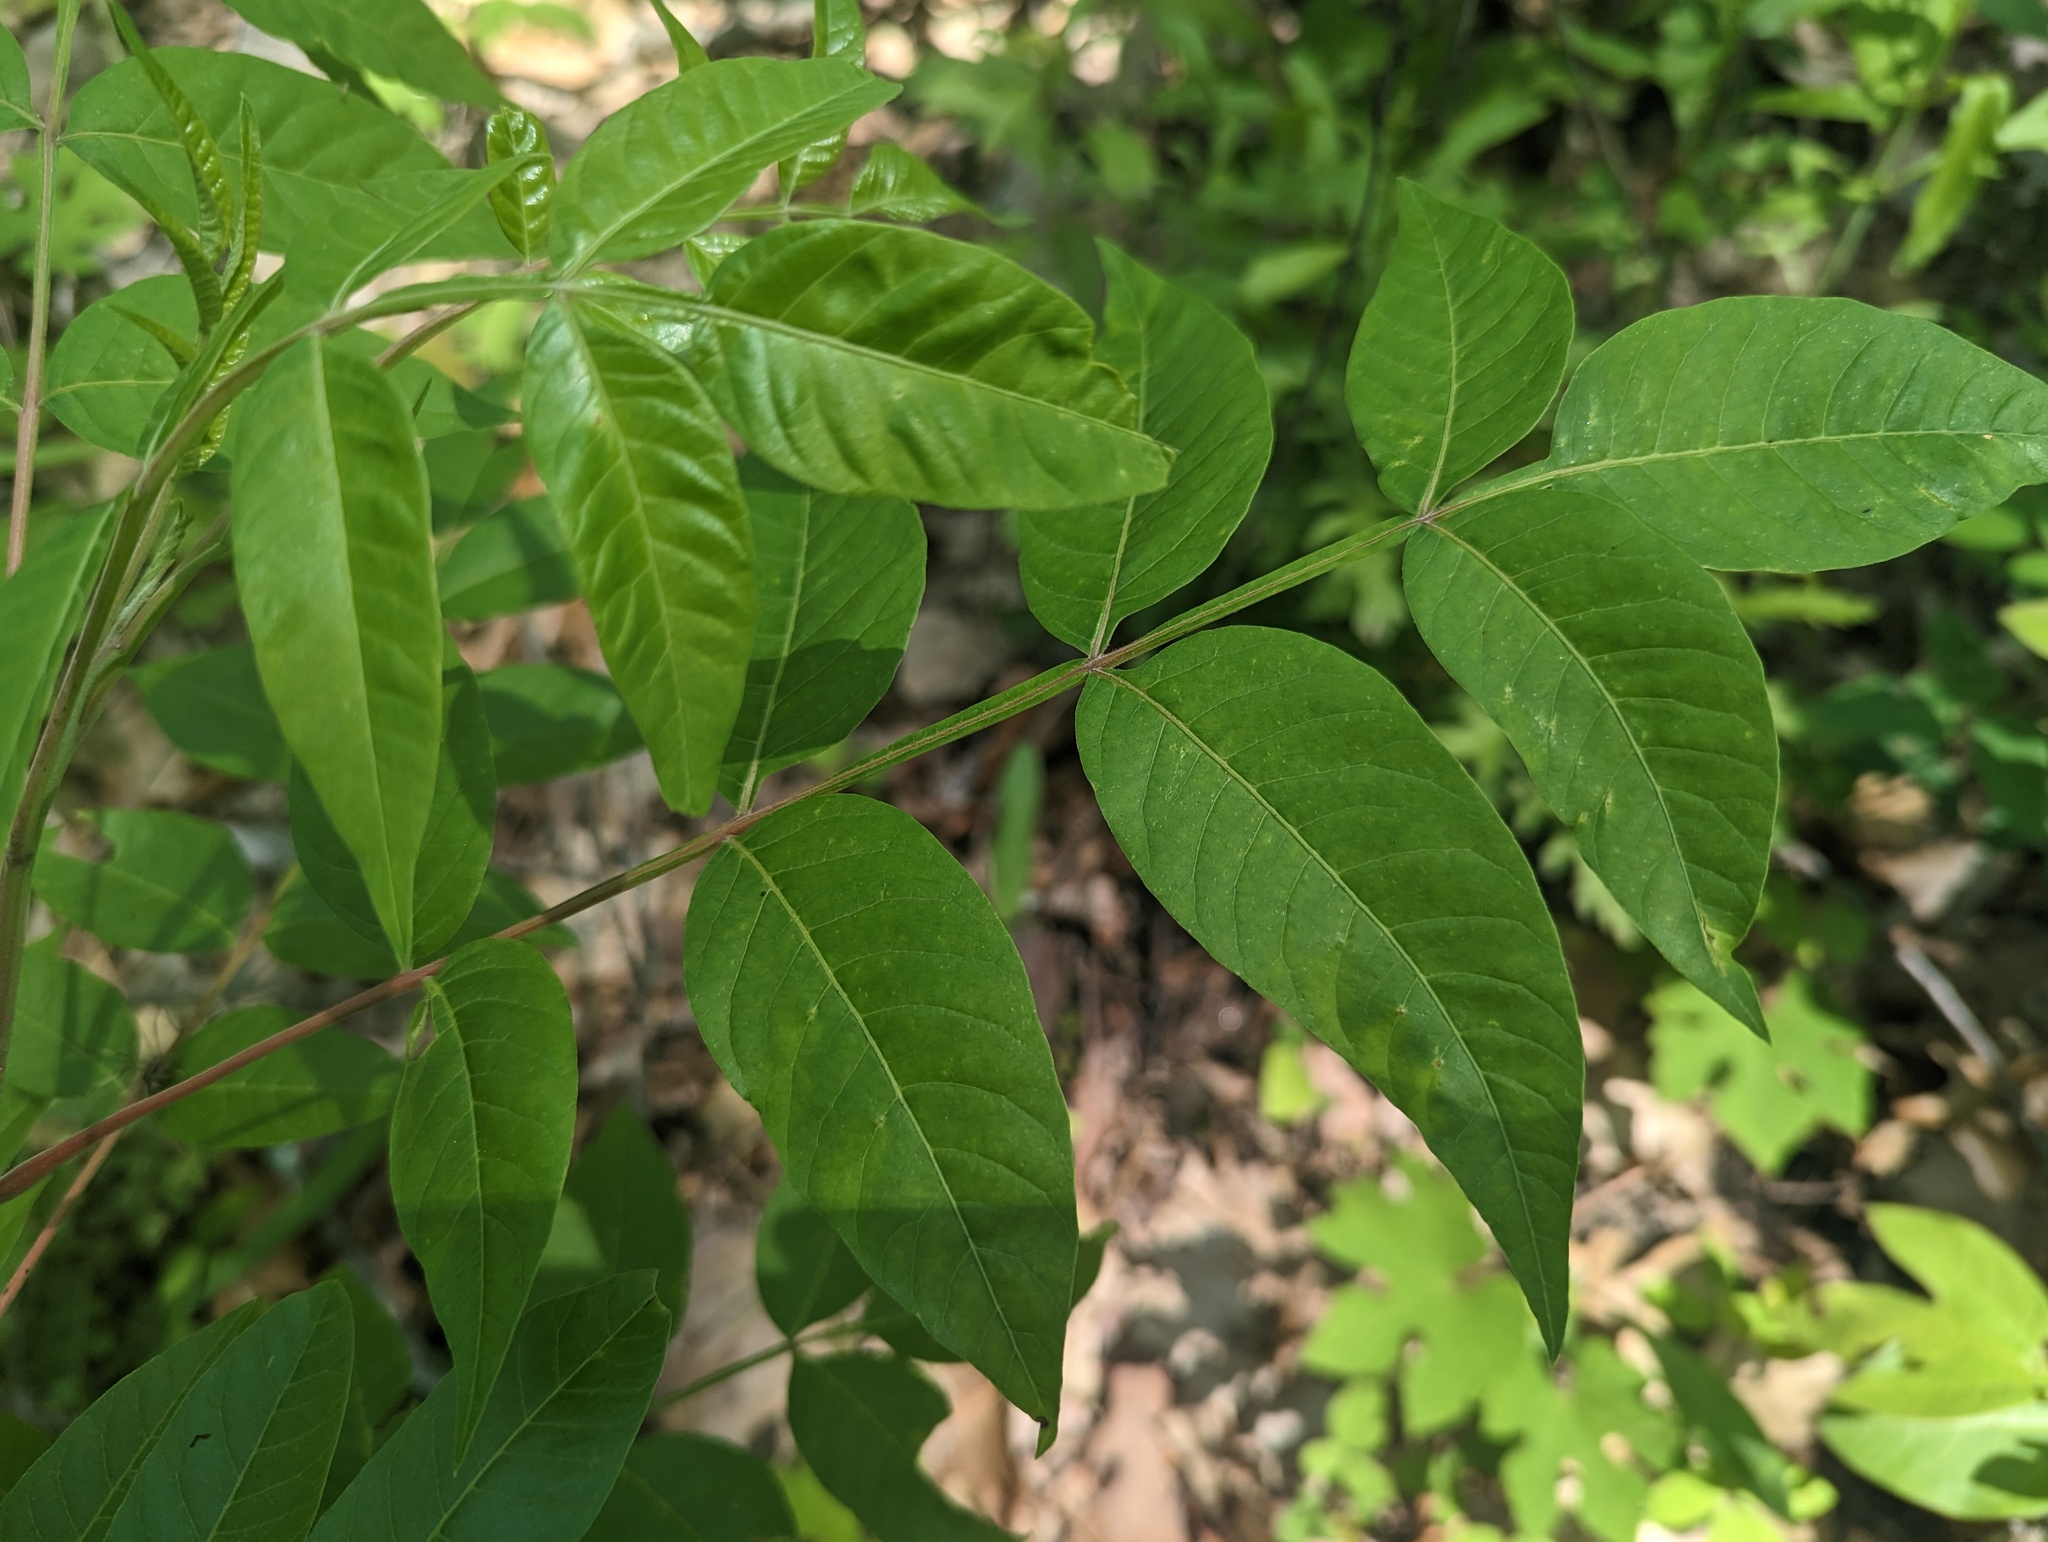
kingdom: Plantae
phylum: Tracheophyta
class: Magnoliopsida
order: Sapindales
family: Anacardiaceae
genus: Rhus
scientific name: Rhus copallina
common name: Shining sumac
